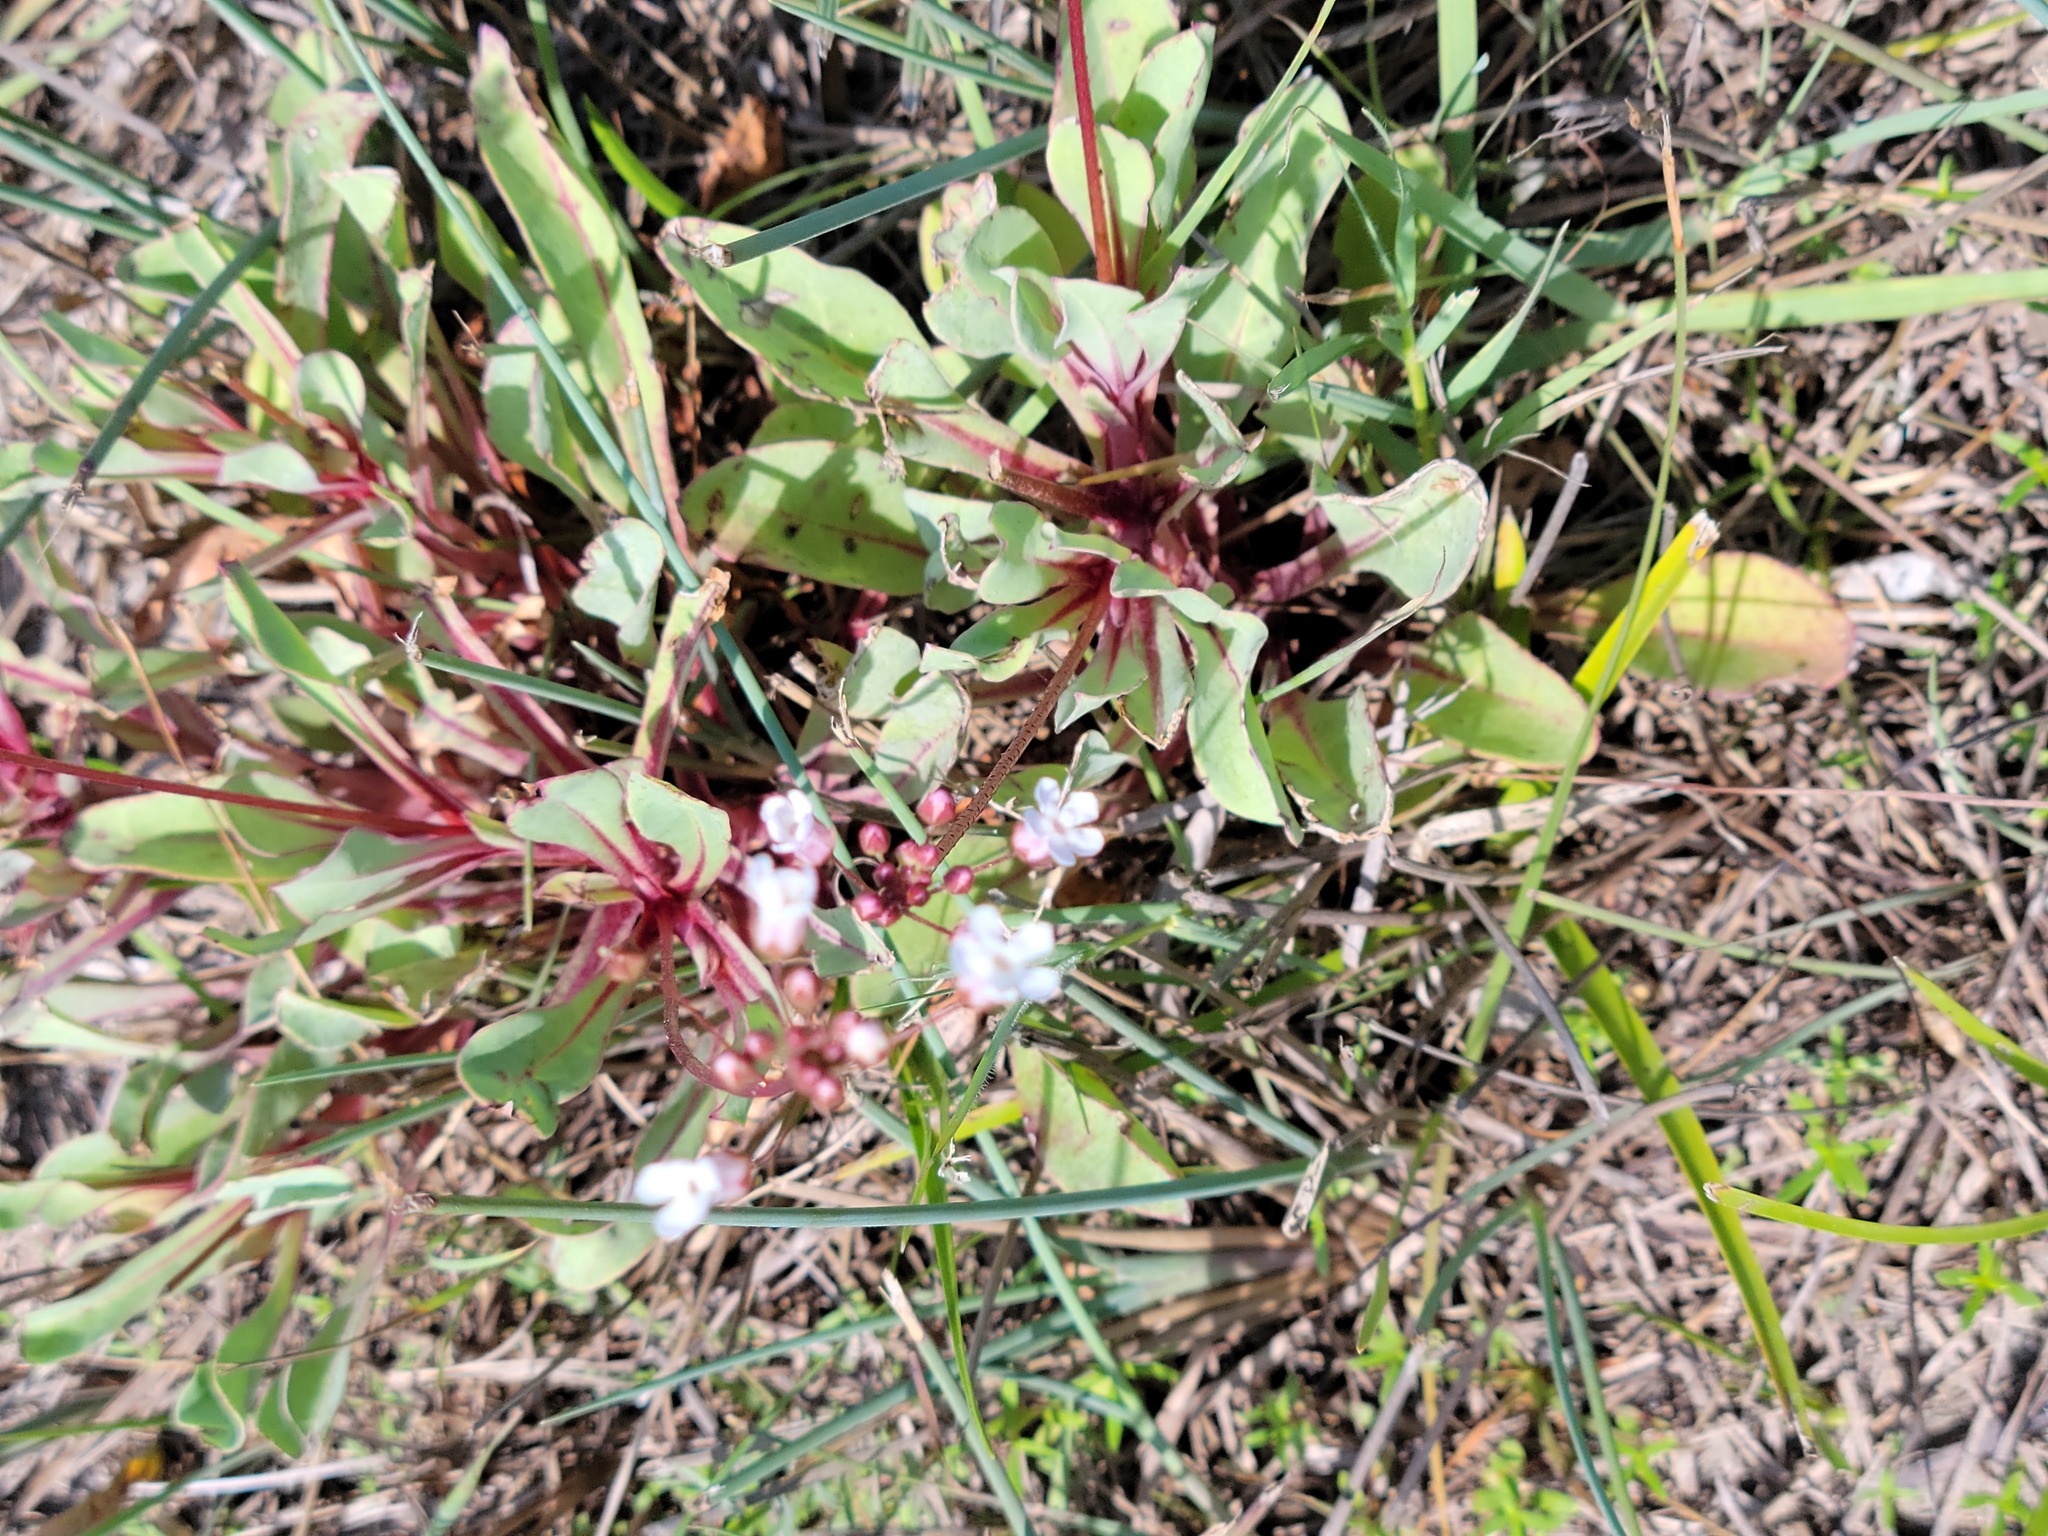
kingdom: Plantae
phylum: Tracheophyta
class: Magnoliopsida
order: Ericales
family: Primulaceae
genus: Samolus
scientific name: Samolus ebracteatus
